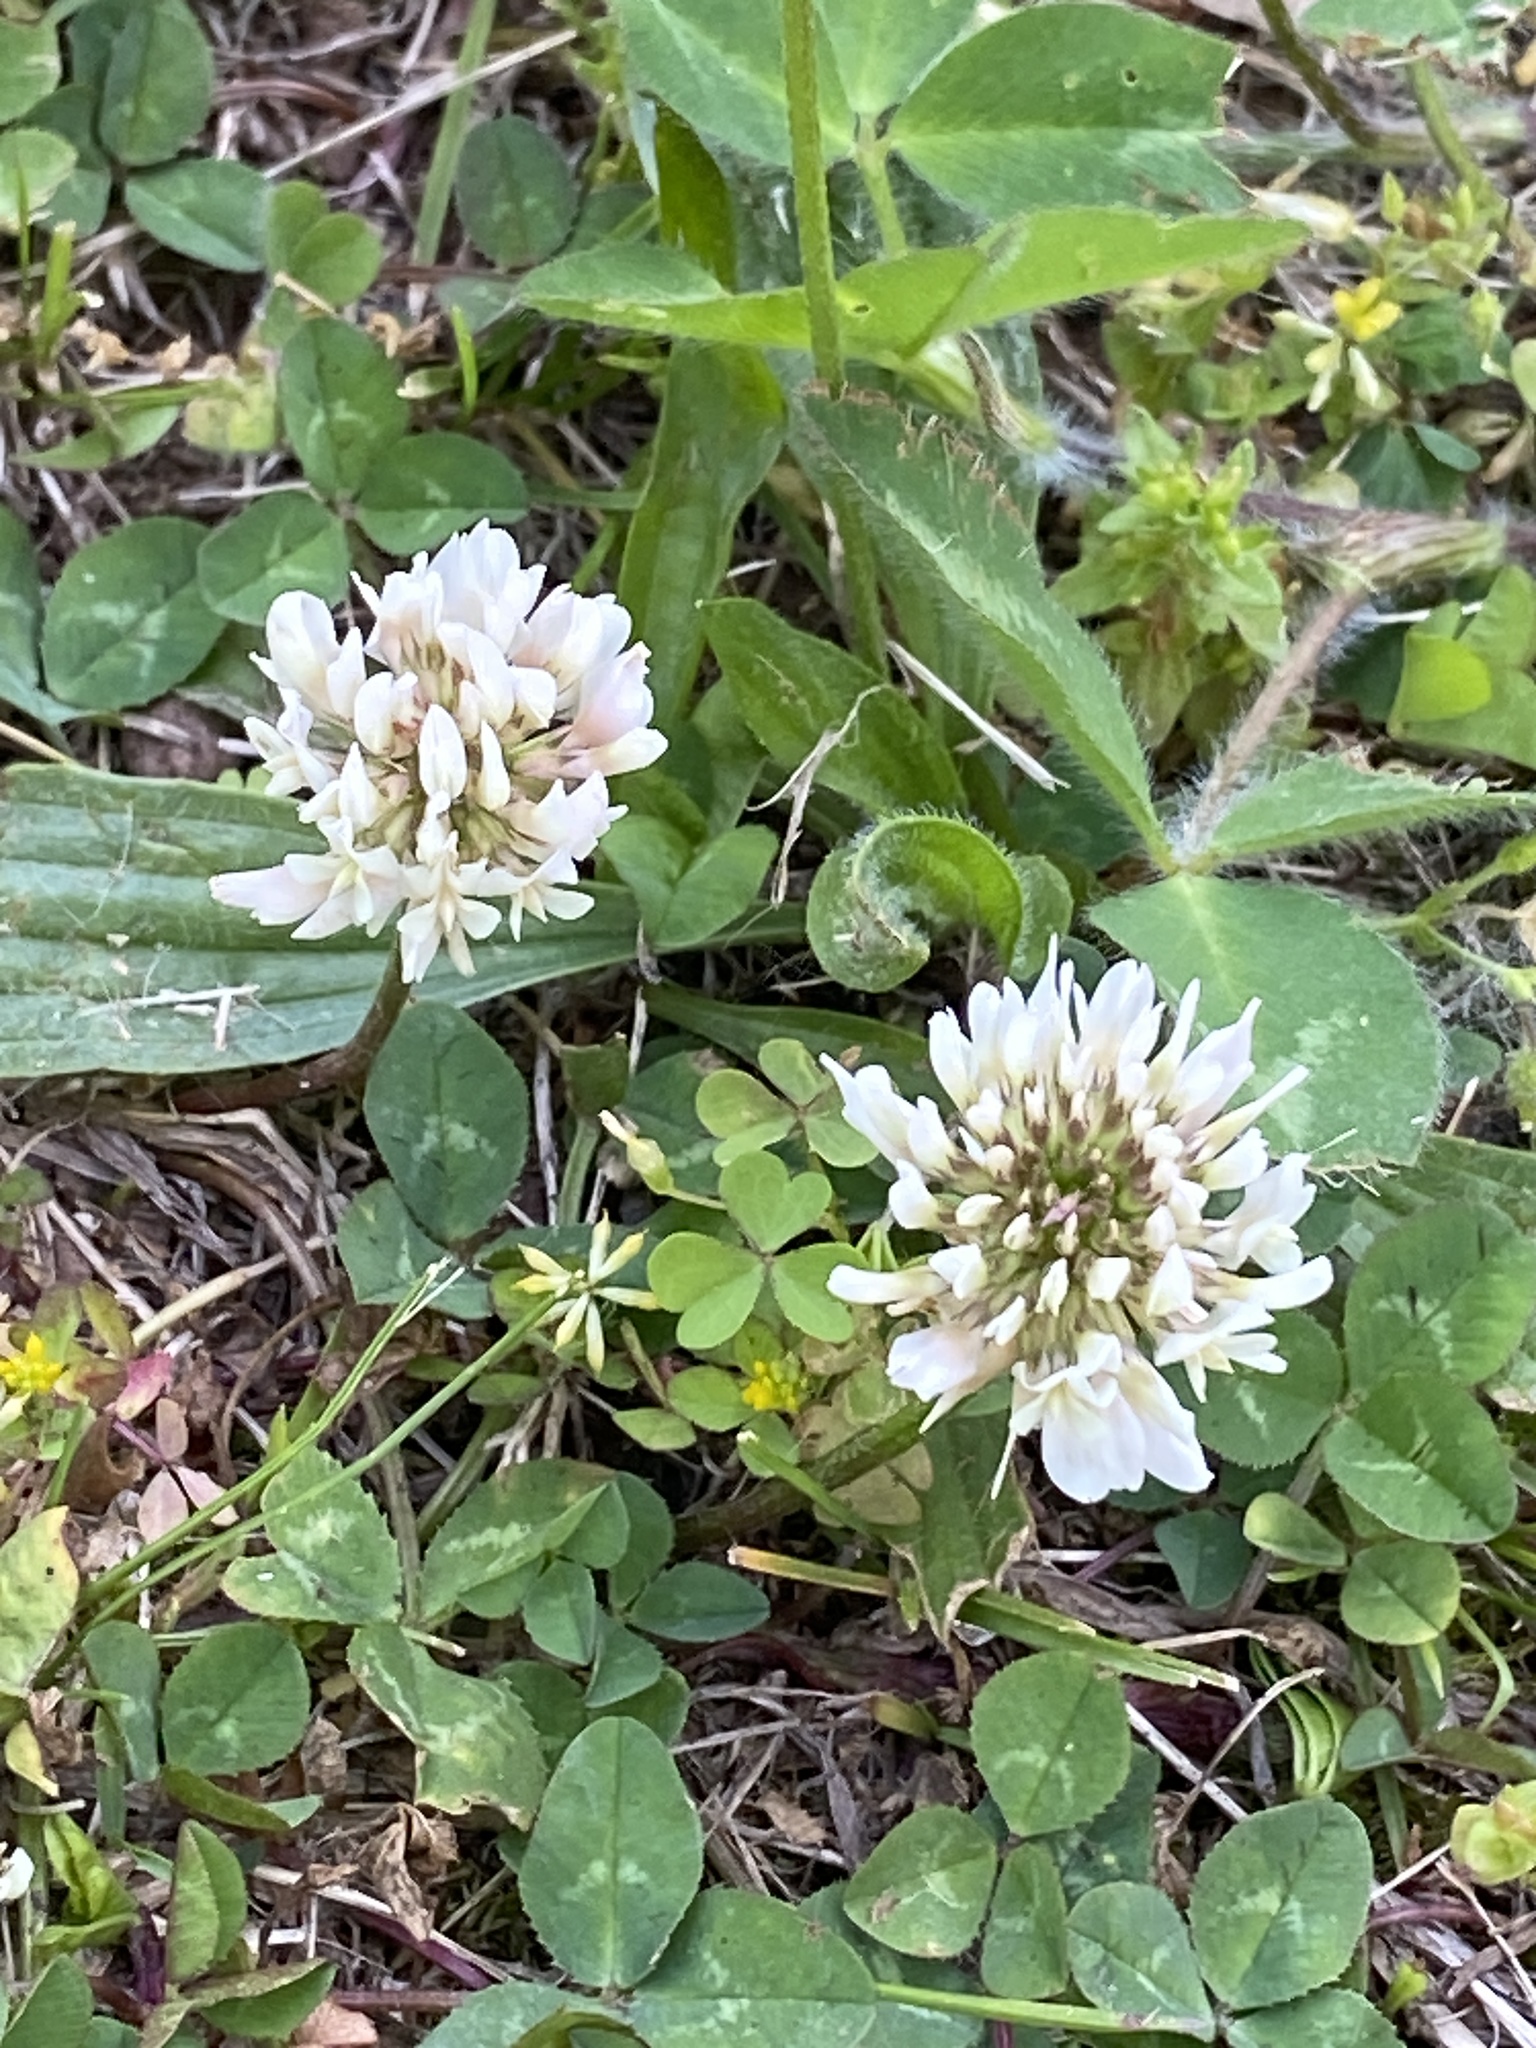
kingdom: Plantae
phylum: Tracheophyta
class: Magnoliopsida
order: Fabales
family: Fabaceae
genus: Trifolium
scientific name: Trifolium repens
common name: White clover
